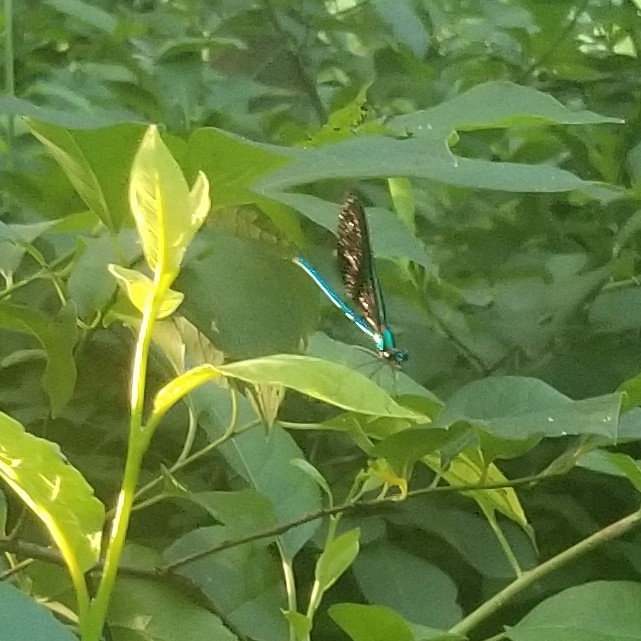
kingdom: Animalia
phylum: Arthropoda
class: Insecta
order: Odonata
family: Calopterygidae
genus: Calopteryx
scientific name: Calopteryx maculata
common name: Ebony jewelwing
